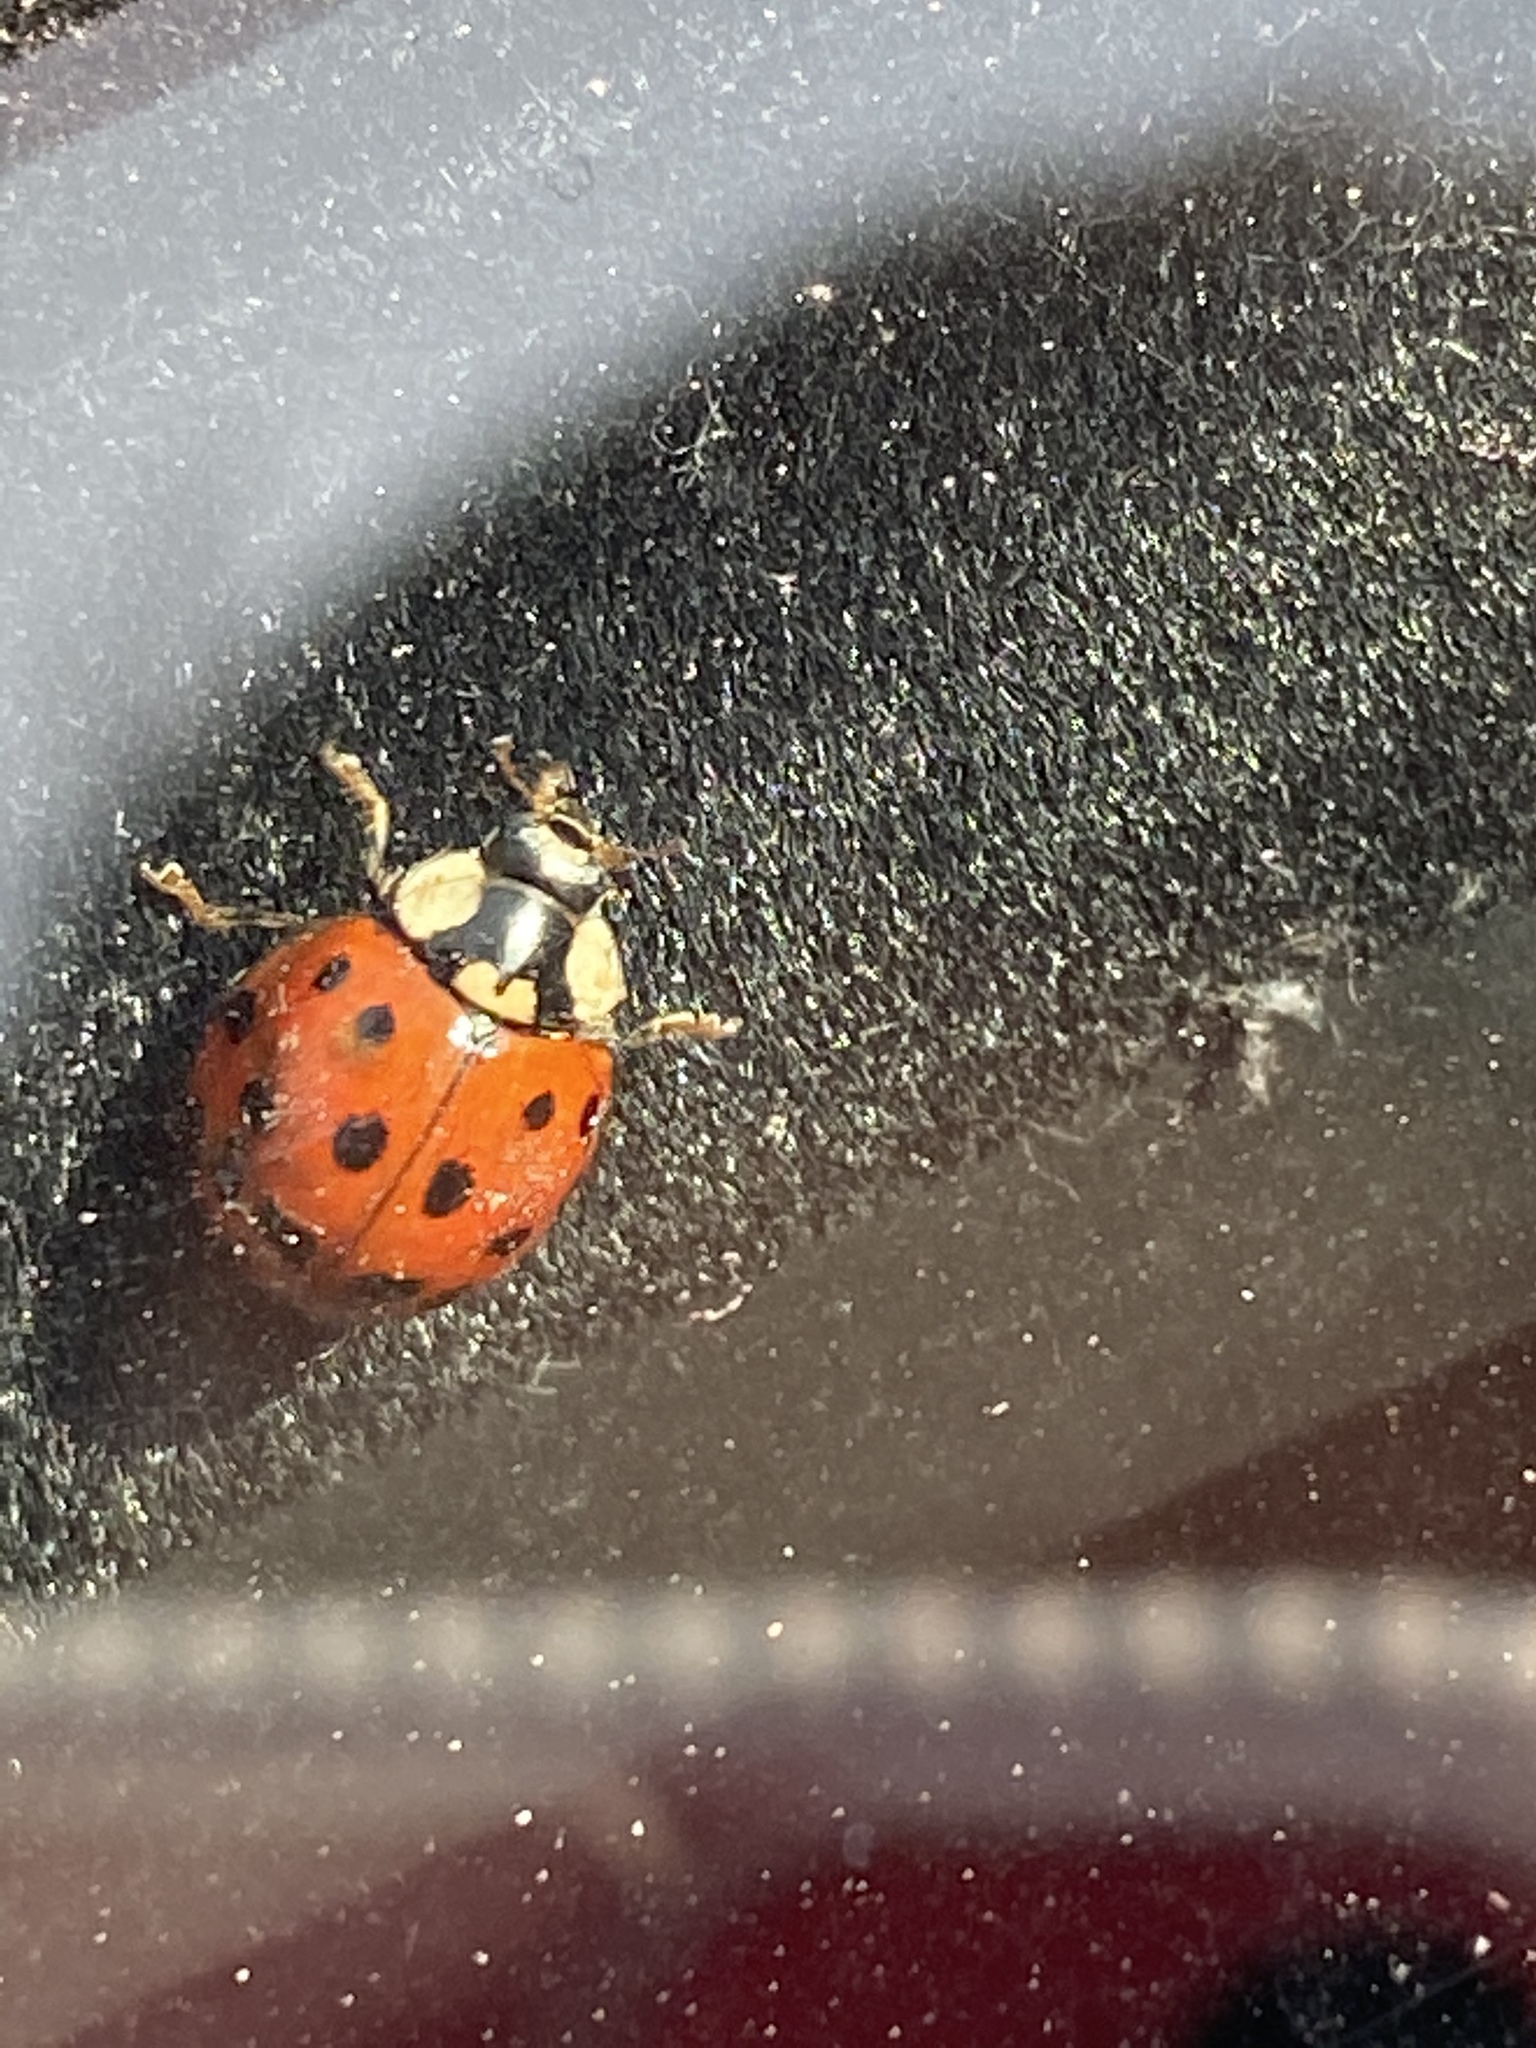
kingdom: Animalia
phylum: Arthropoda
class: Insecta
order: Coleoptera
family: Coccinellidae
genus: Harmonia
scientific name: Harmonia axyridis
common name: Harlequin ladybird
